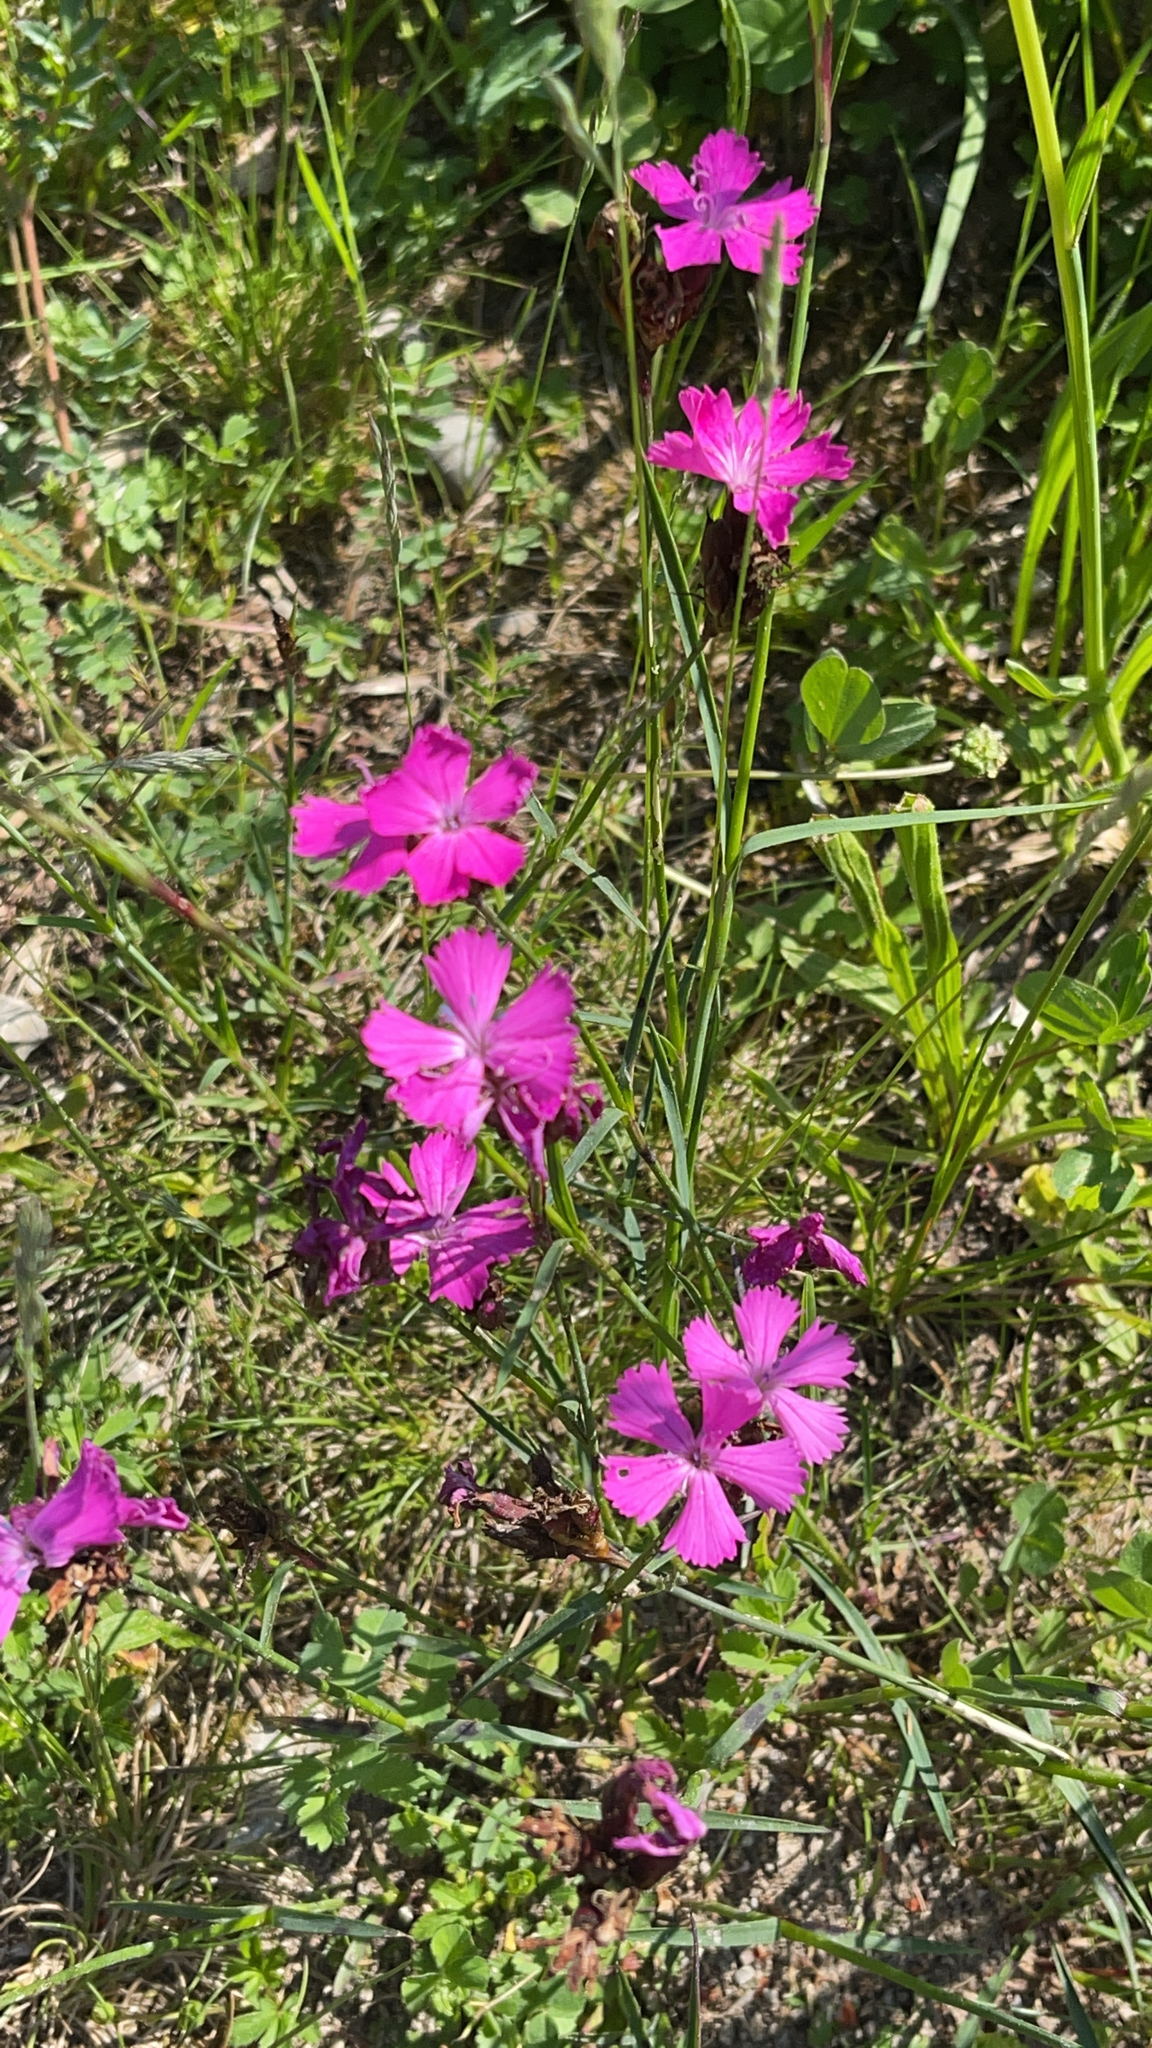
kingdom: Plantae
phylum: Tracheophyta
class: Magnoliopsida
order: Caryophyllales
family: Caryophyllaceae
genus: Dianthus
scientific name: Dianthus carthusianorum
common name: Carthusian pink
